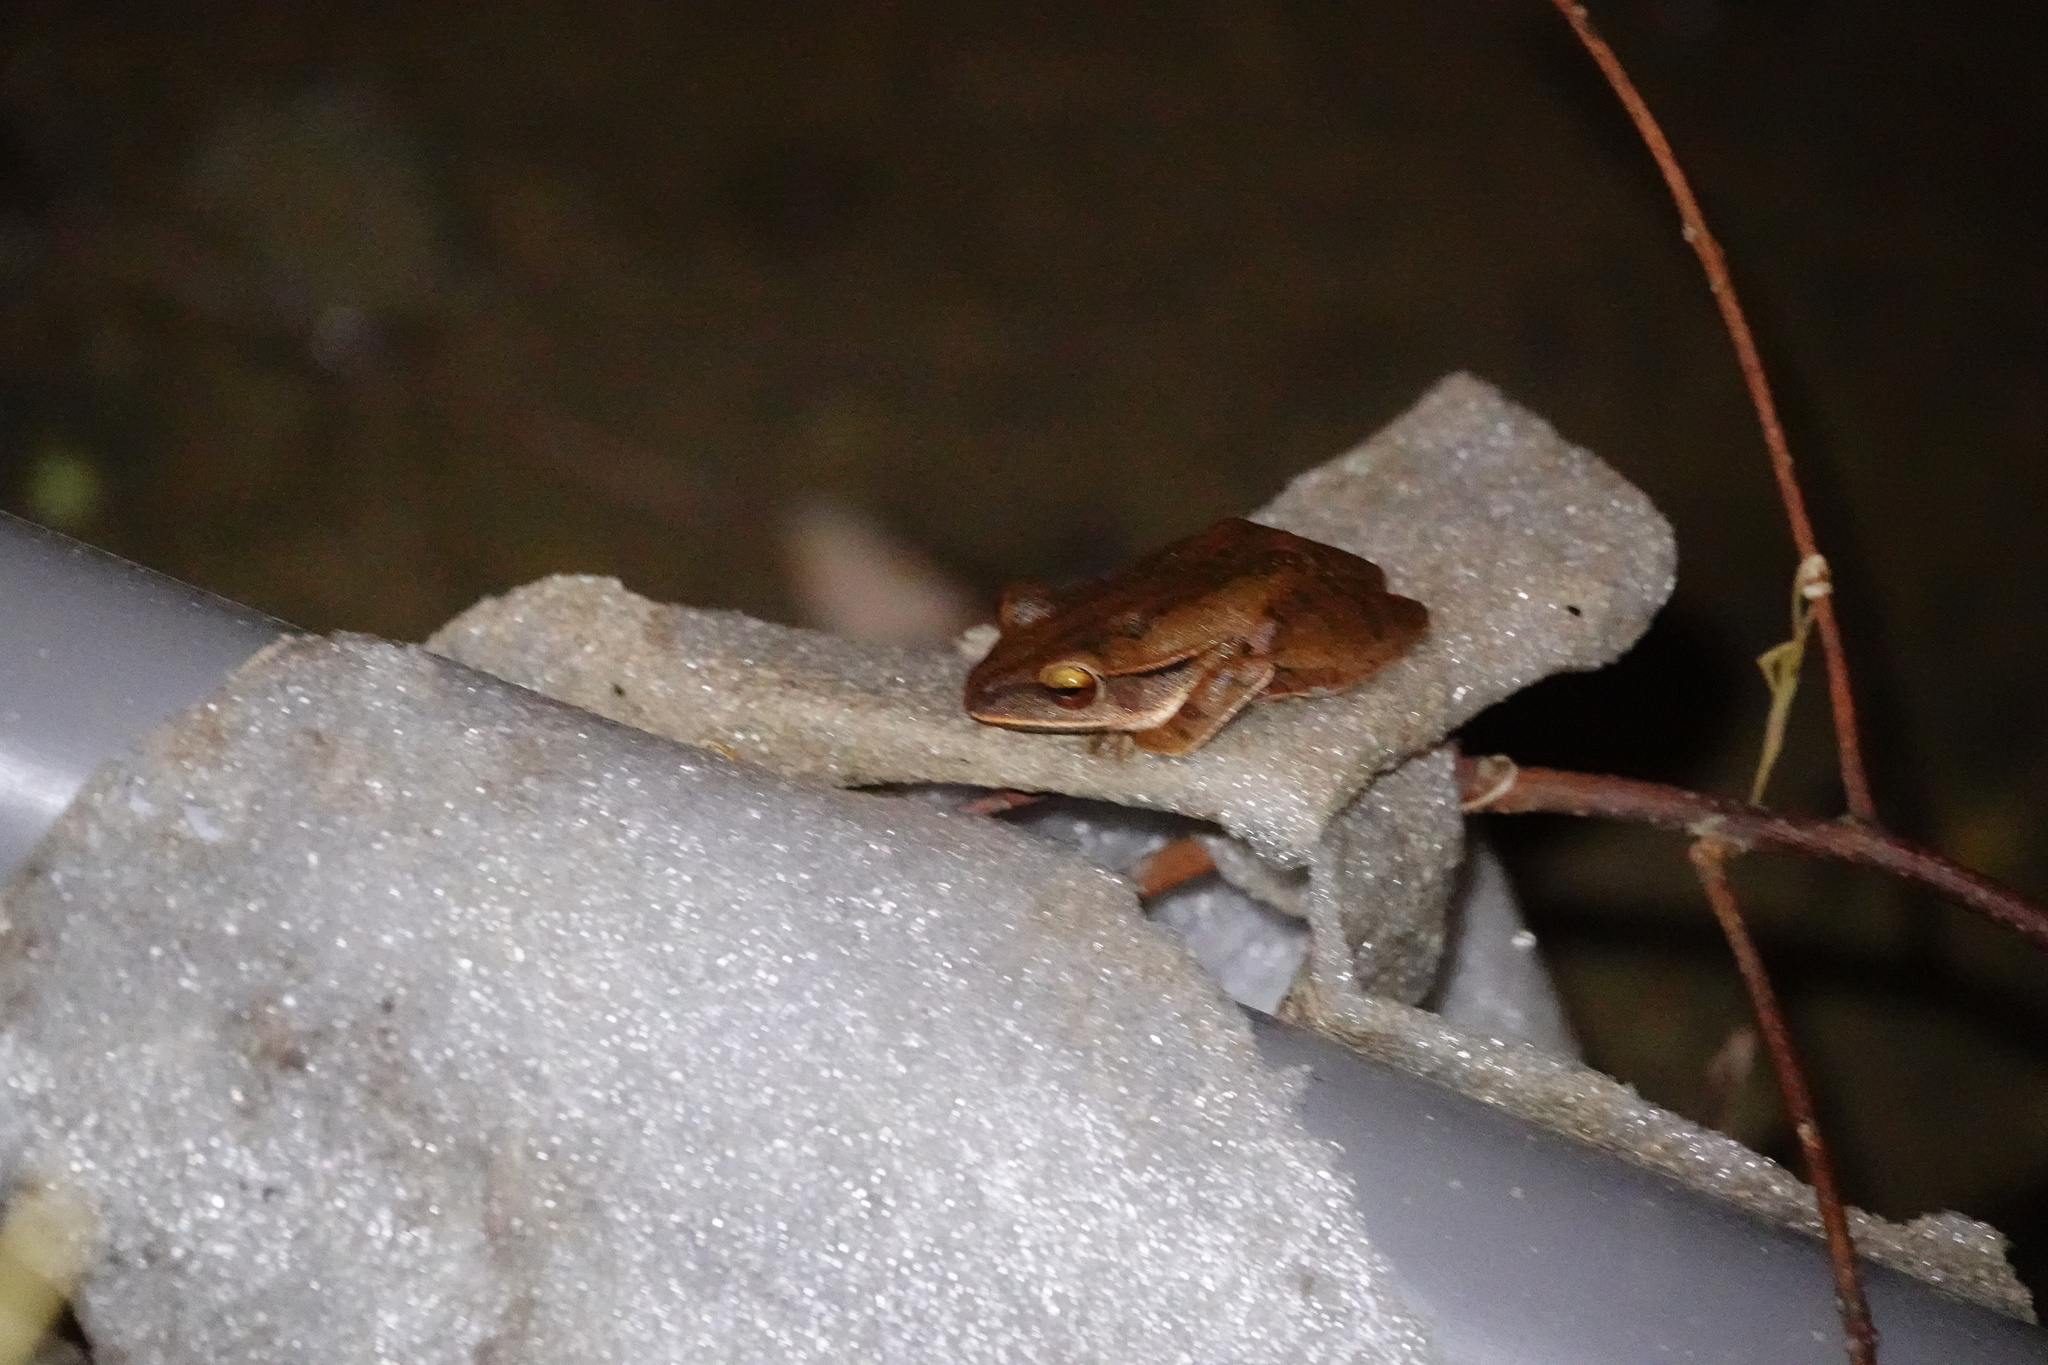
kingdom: Animalia
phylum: Chordata
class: Amphibia
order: Anura
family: Rhacophoridae
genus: Polypedates
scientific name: Polypedates braueri
